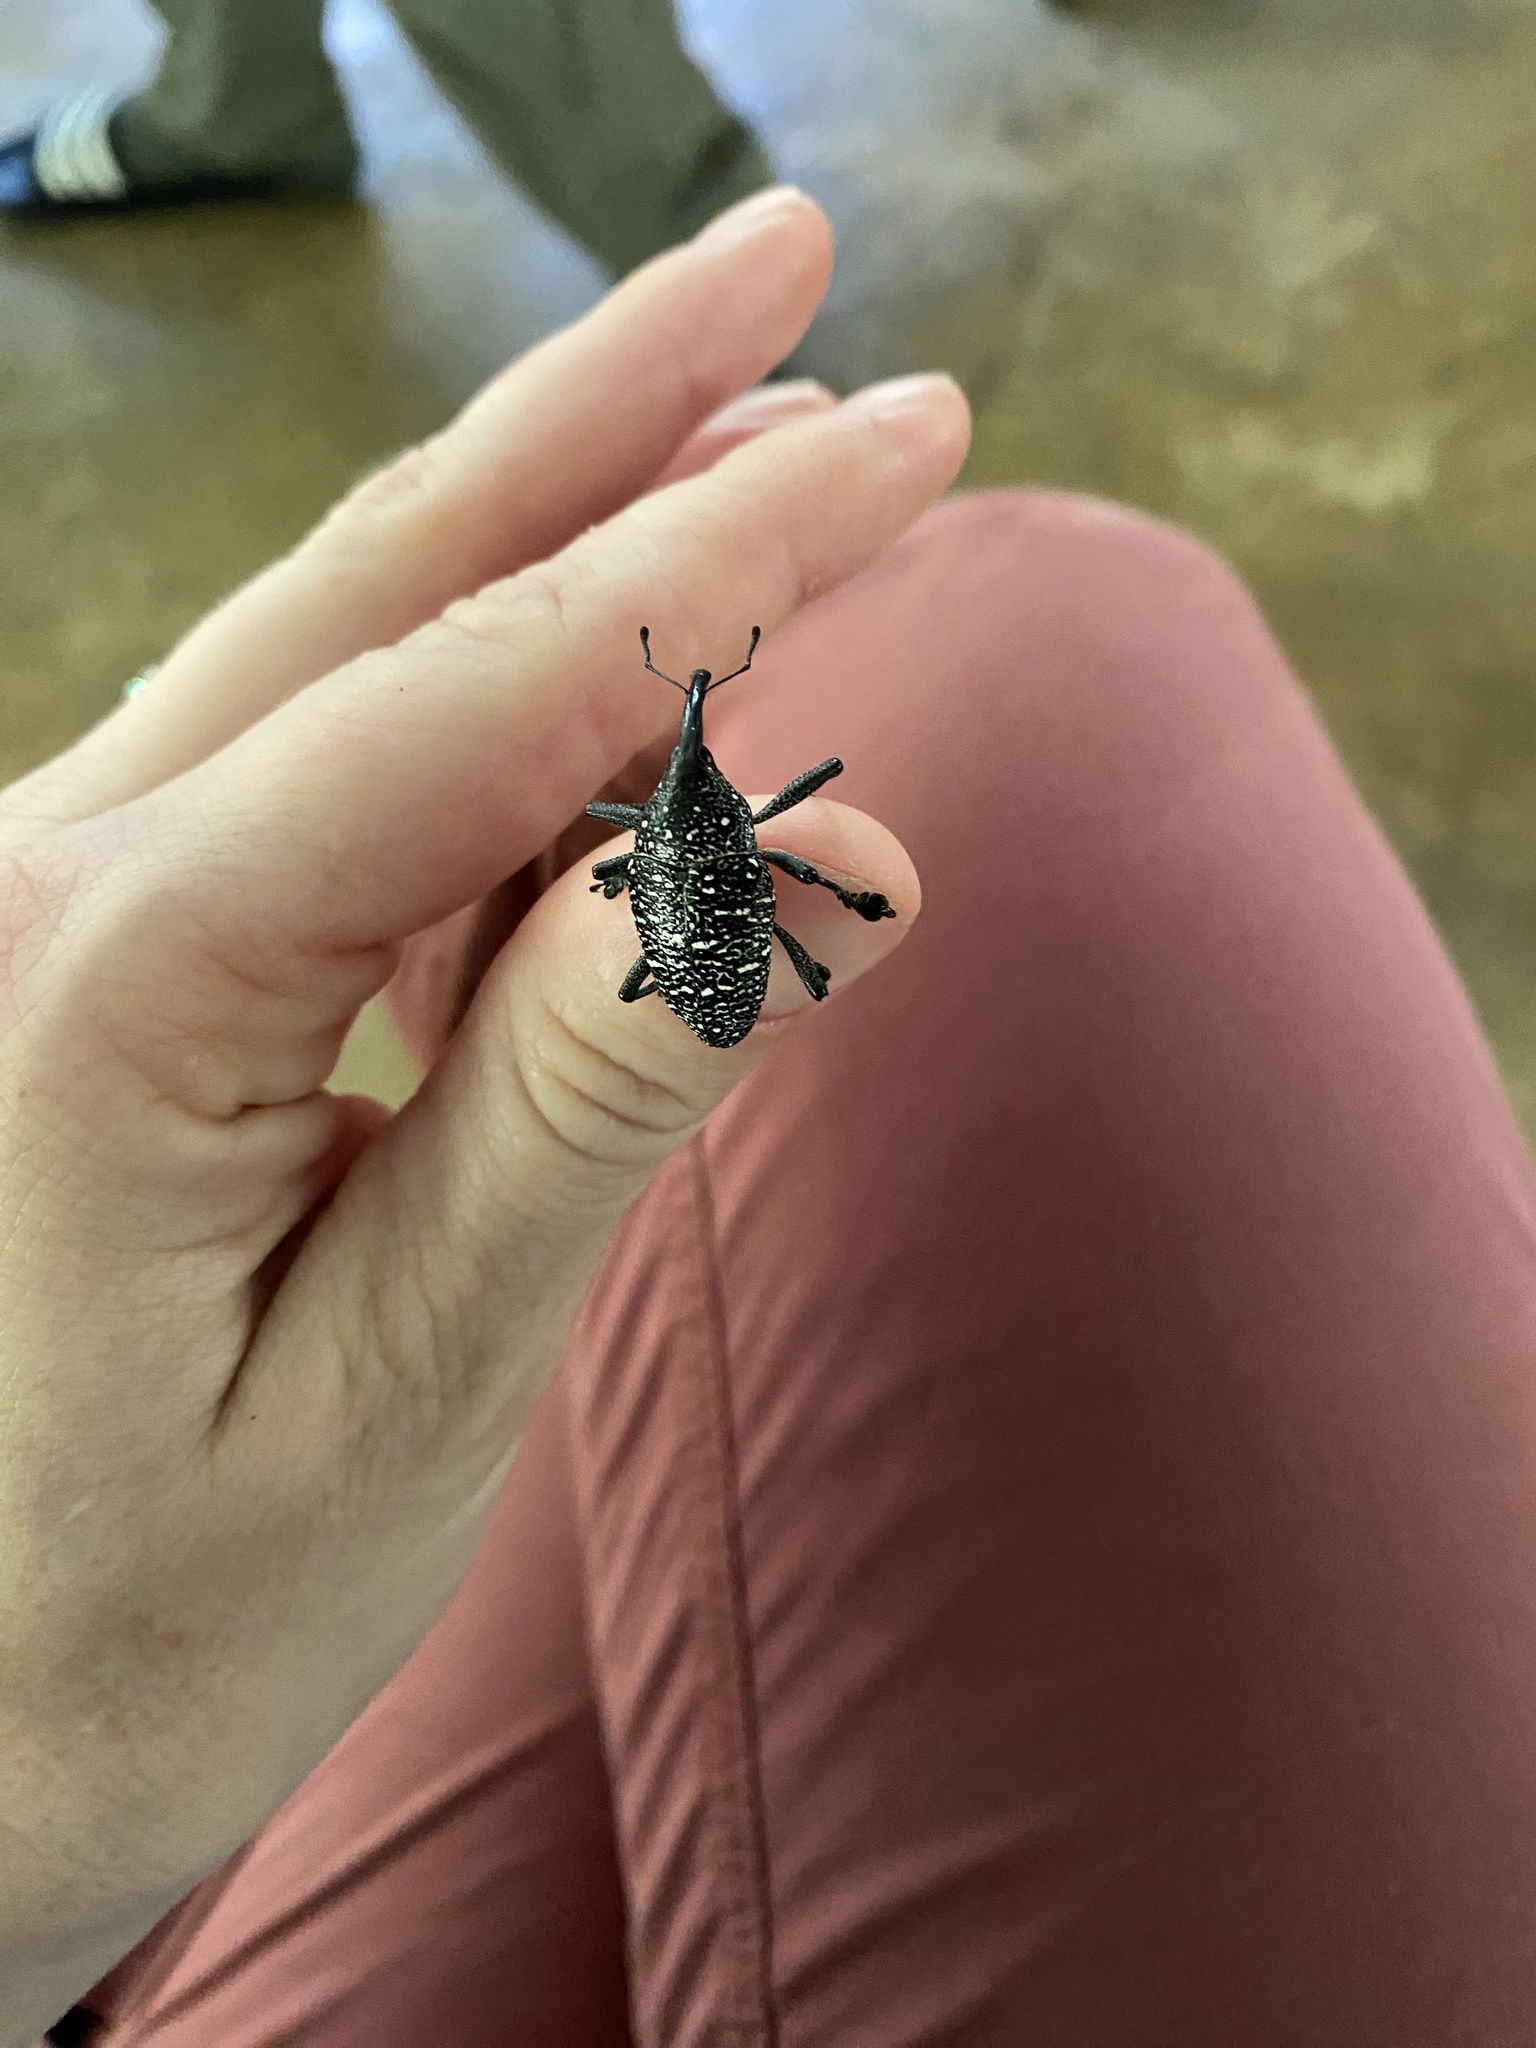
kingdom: Animalia
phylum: Arthropoda
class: Insecta
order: Coleoptera
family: Curculionidae
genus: Cholus
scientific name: Cholus viduatus
